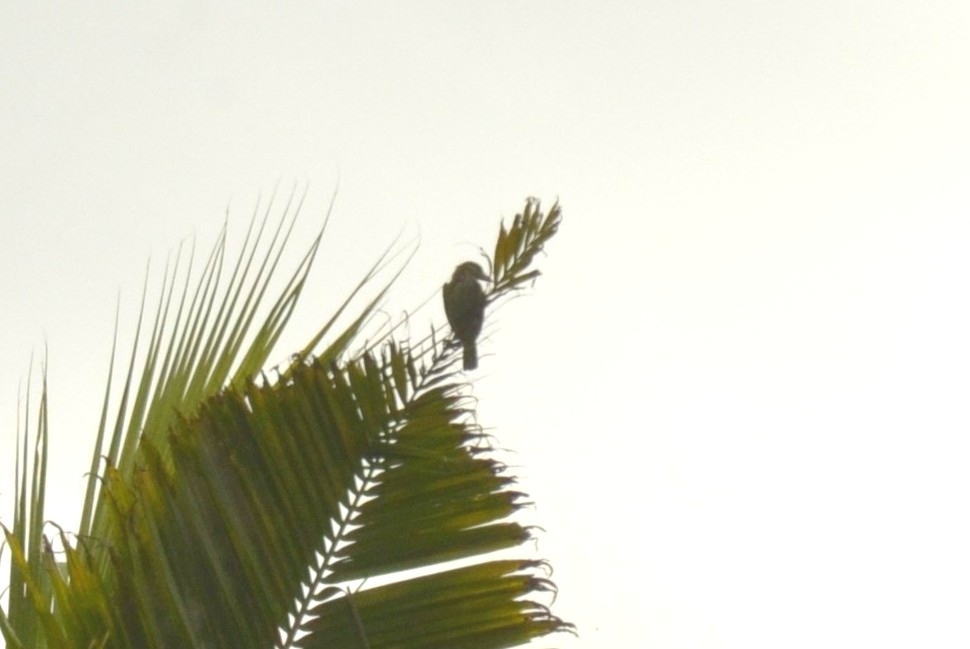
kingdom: Animalia
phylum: Chordata
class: Aves
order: Piciformes
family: Megalaimidae
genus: Psilopogon
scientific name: Psilopogon viridis
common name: White-cheeked barbet
